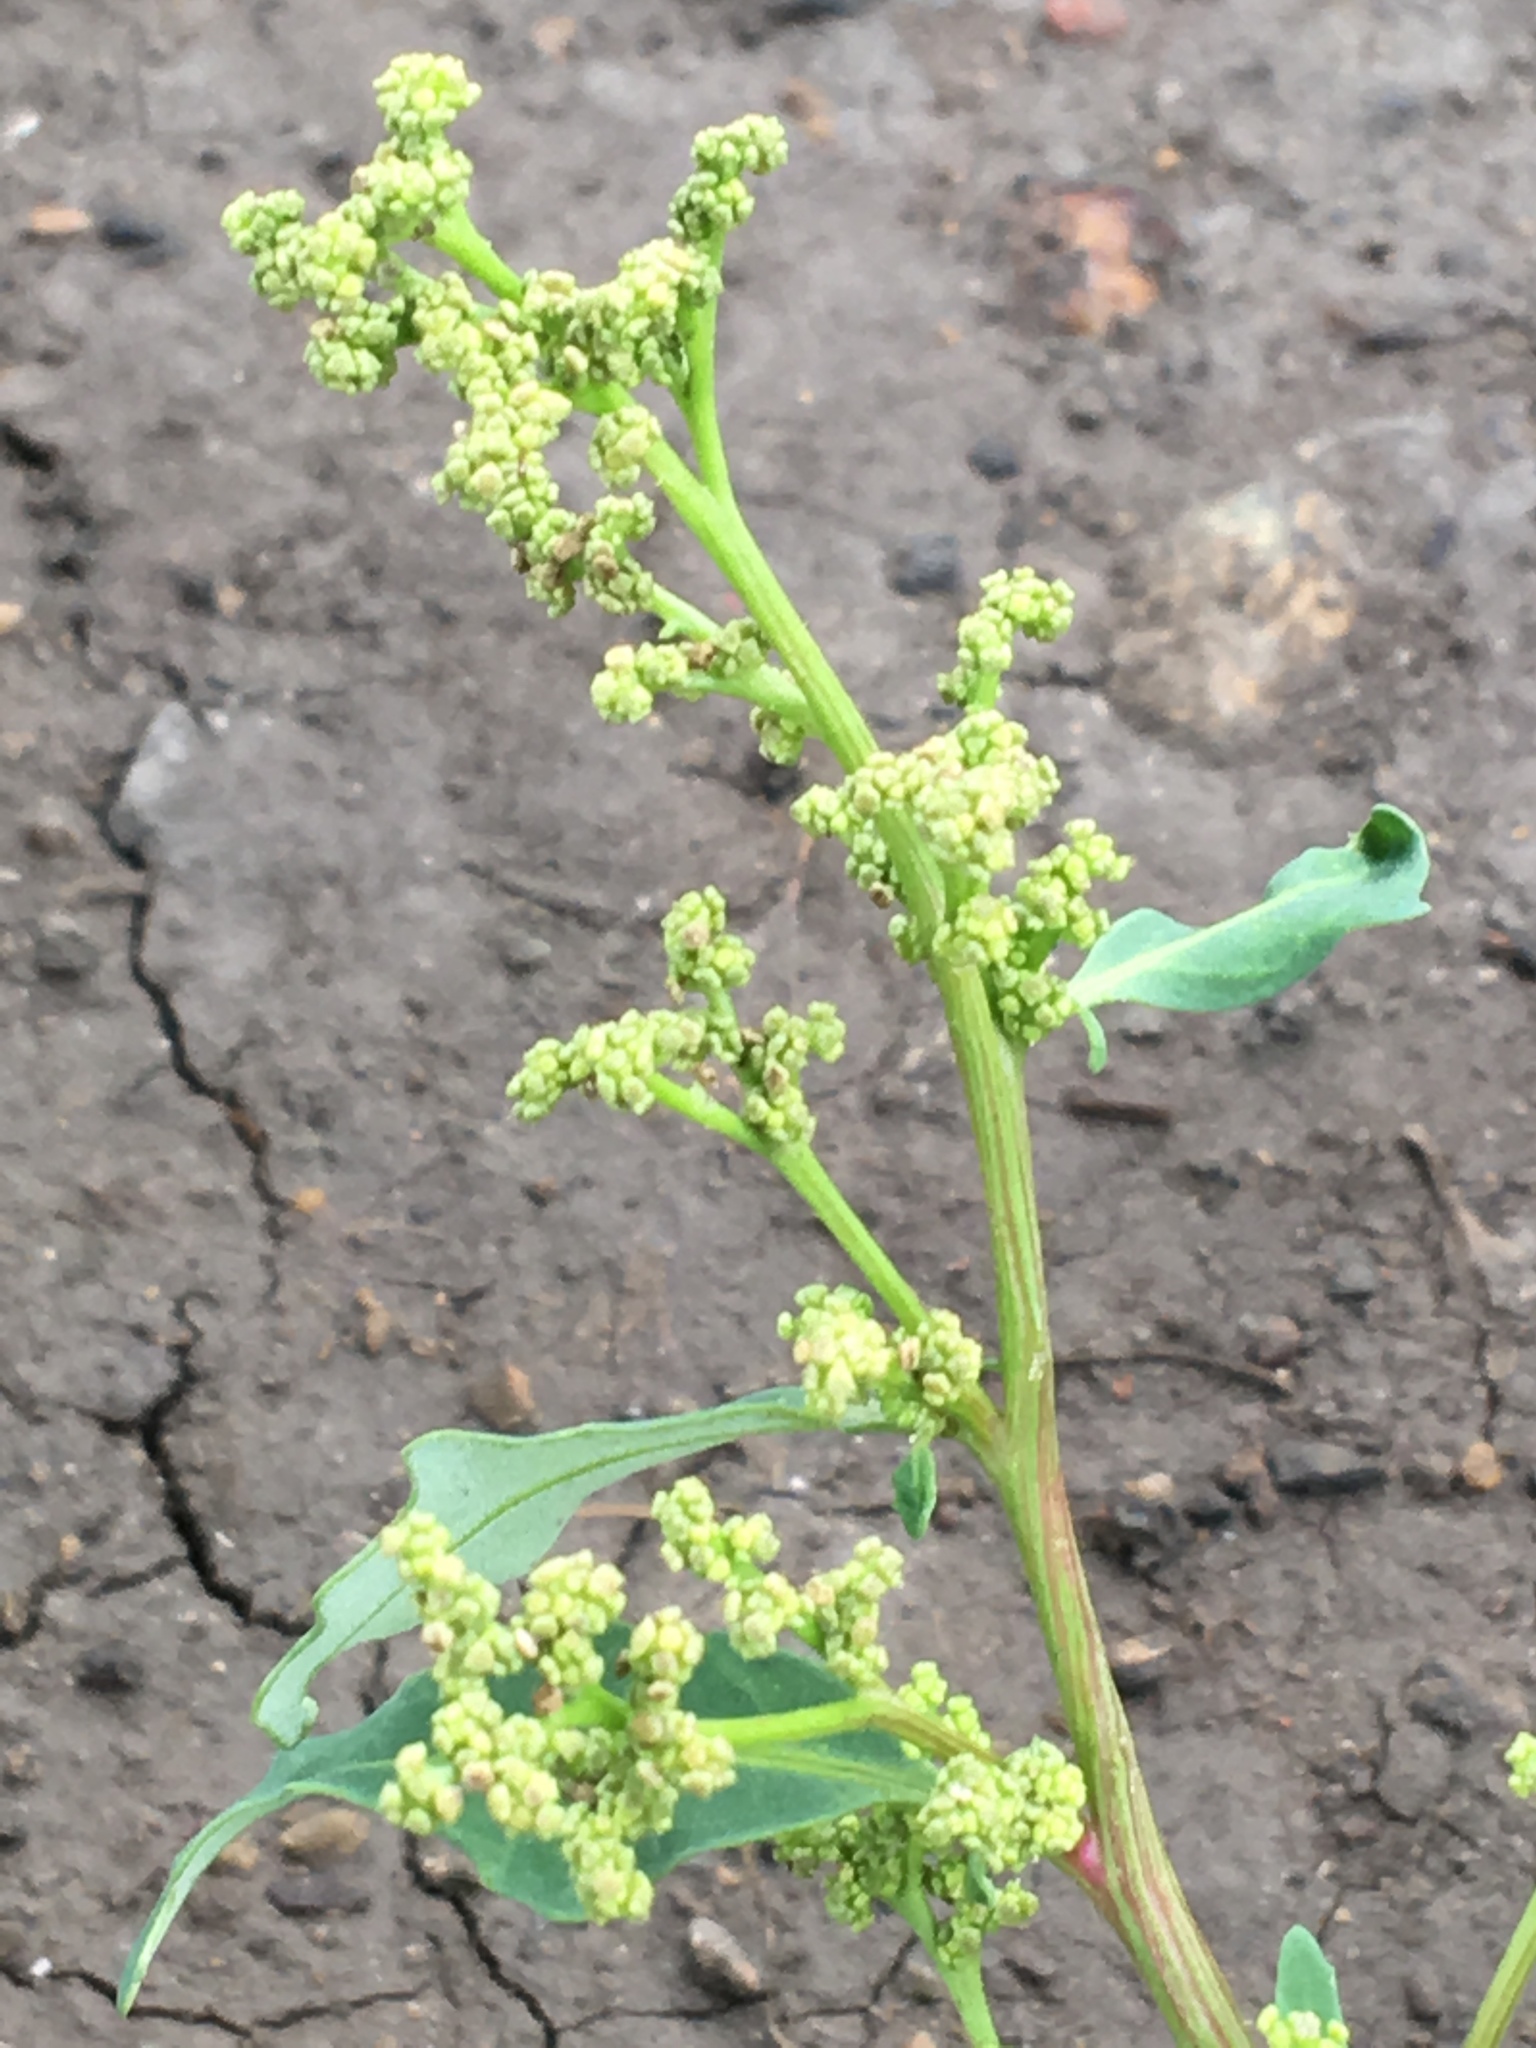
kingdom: Plantae
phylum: Tracheophyta
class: Magnoliopsida
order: Caryophyllales
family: Amaranthaceae
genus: Oxybasis
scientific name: Oxybasis glauca
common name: Glaucous goosefoot
